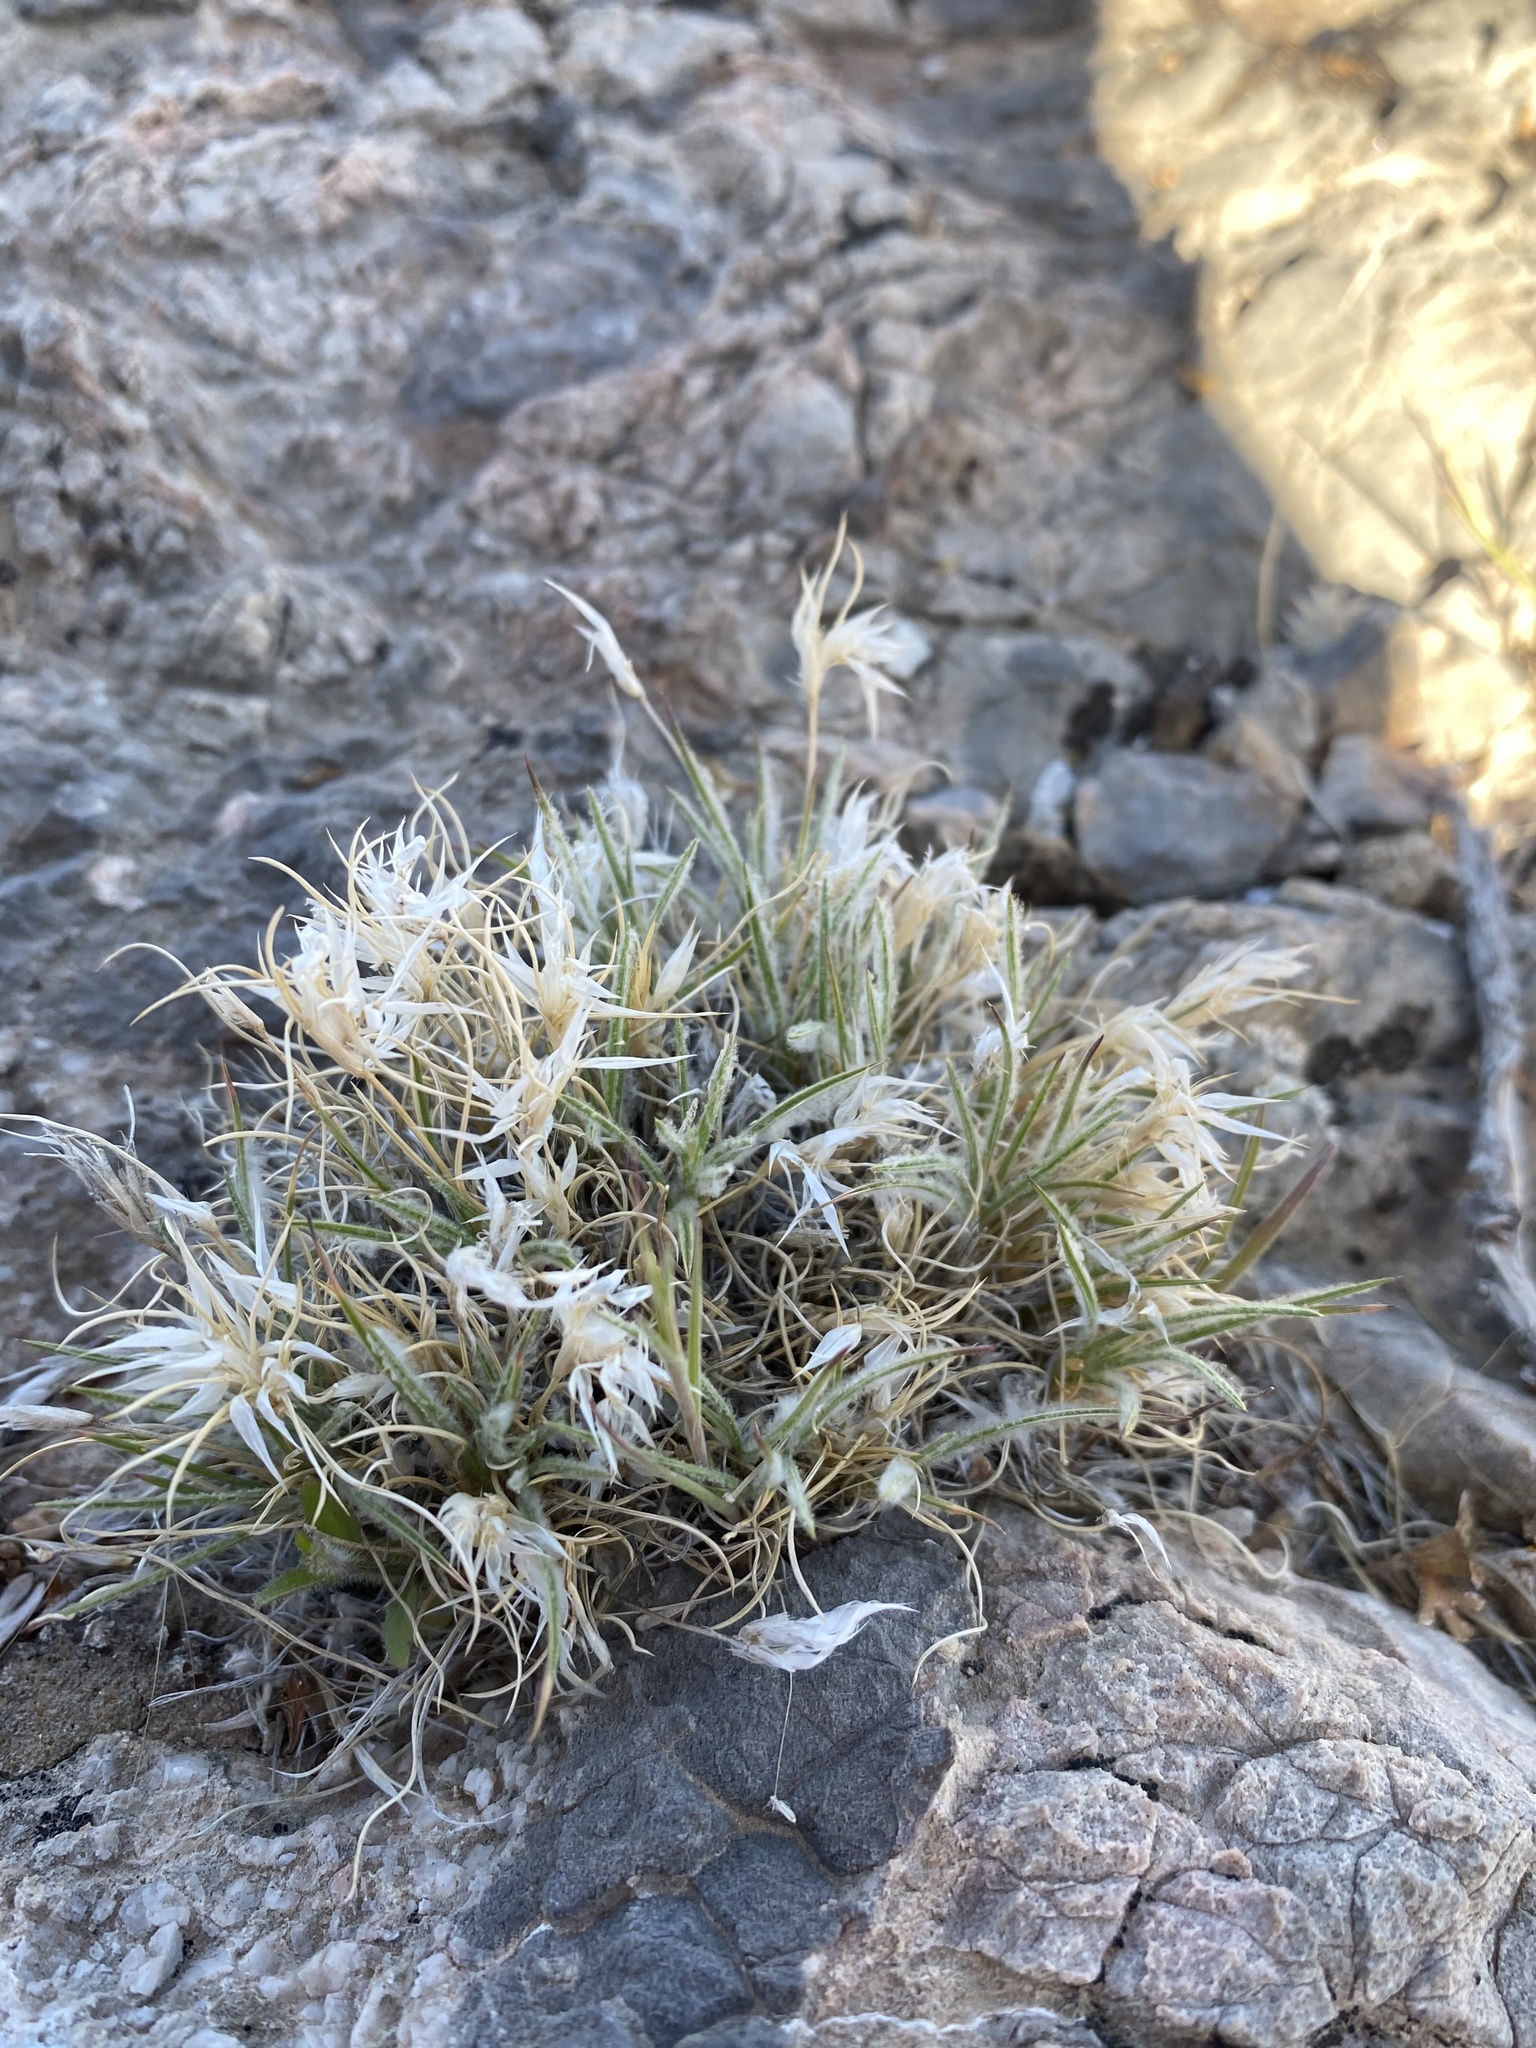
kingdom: Plantae
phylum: Tracheophyta
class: Liliopsida
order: Poales
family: Poaceae
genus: Dasyochloa
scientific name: Dasyochloa pulchella
